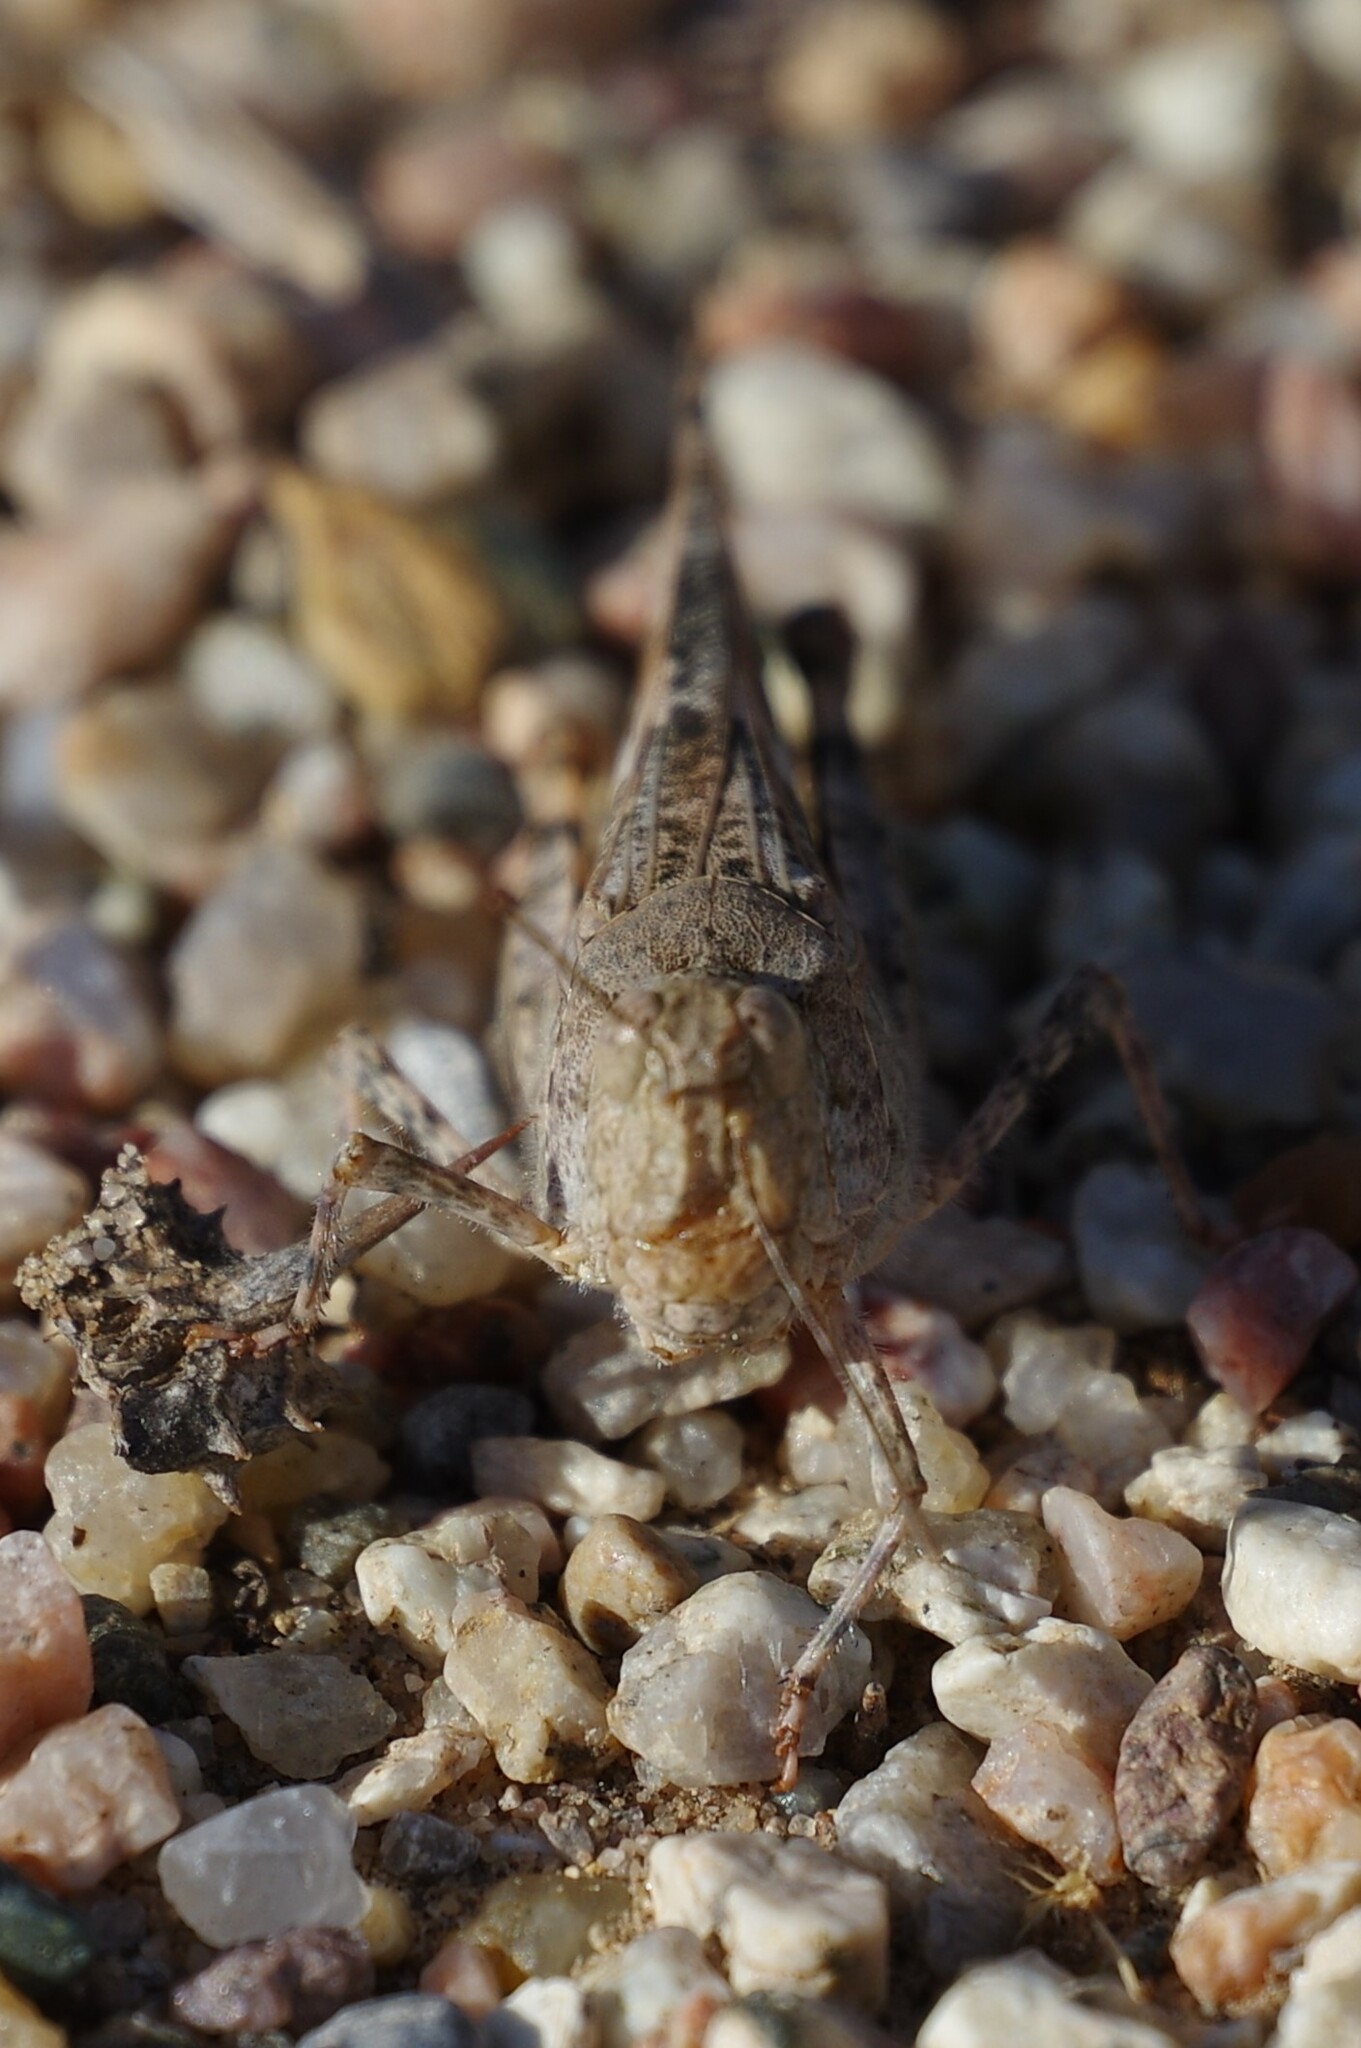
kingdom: Animalia
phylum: Arthropoda
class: Insecta
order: Orthoptera
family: Acrididae
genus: Trimerotropis
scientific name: Trimerotropis pallidipennis
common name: Pallid-winged grasshopper
